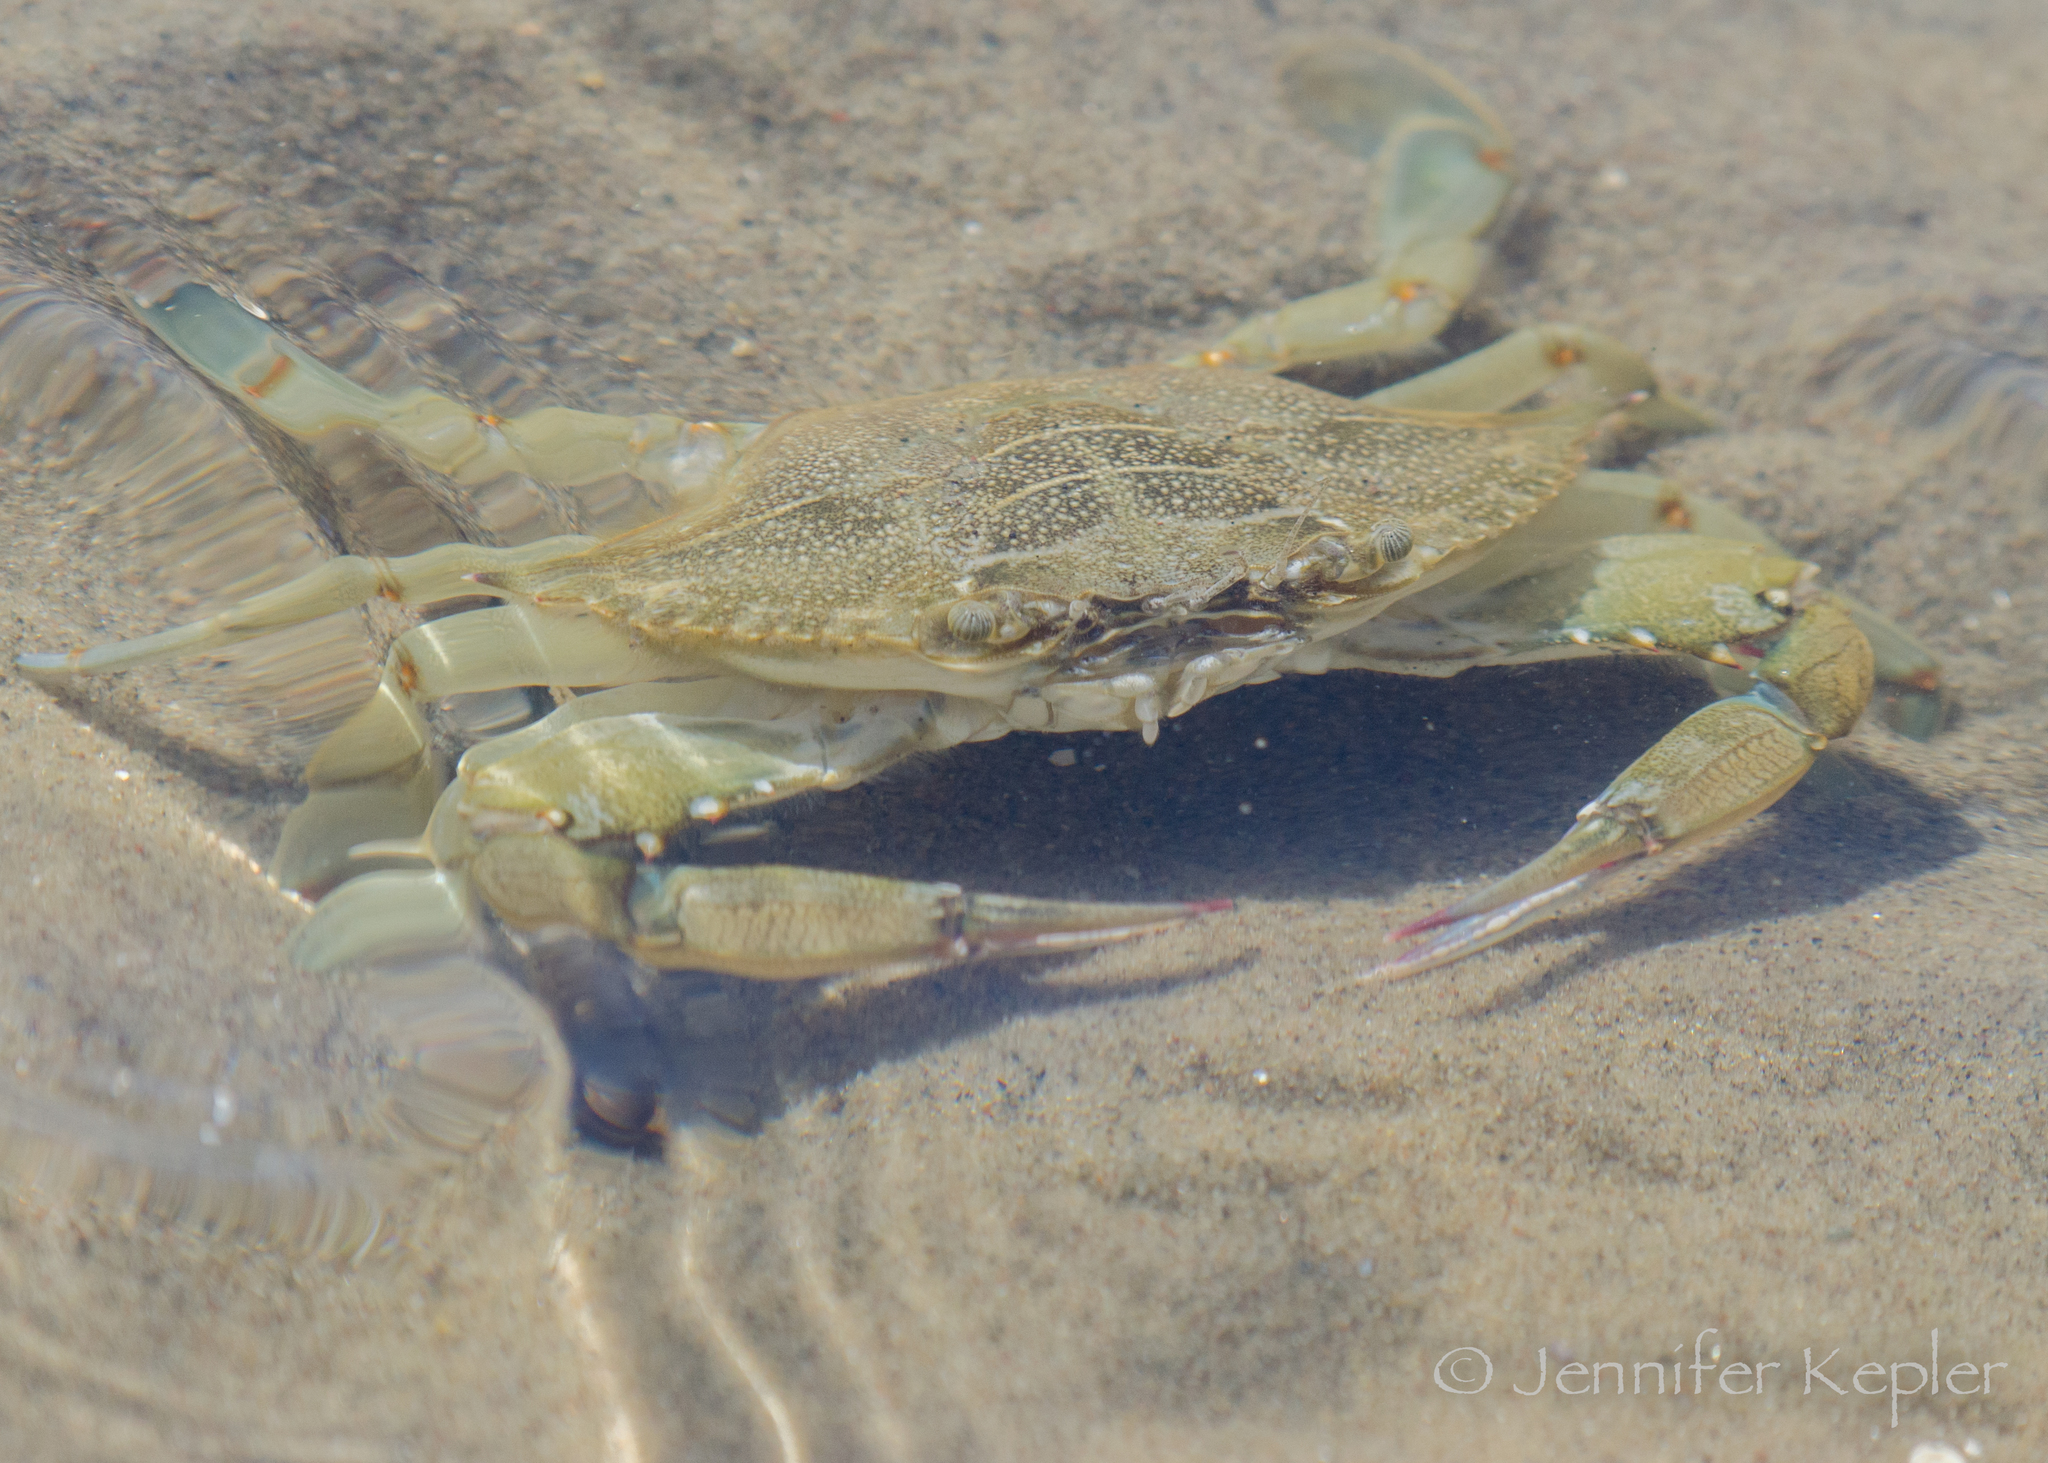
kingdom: Animalia
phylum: Arthropoda
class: Malacostraca
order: Decapoda
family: Portunidae
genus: Callinectes
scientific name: Callinectes sapidus
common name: Blue crab
